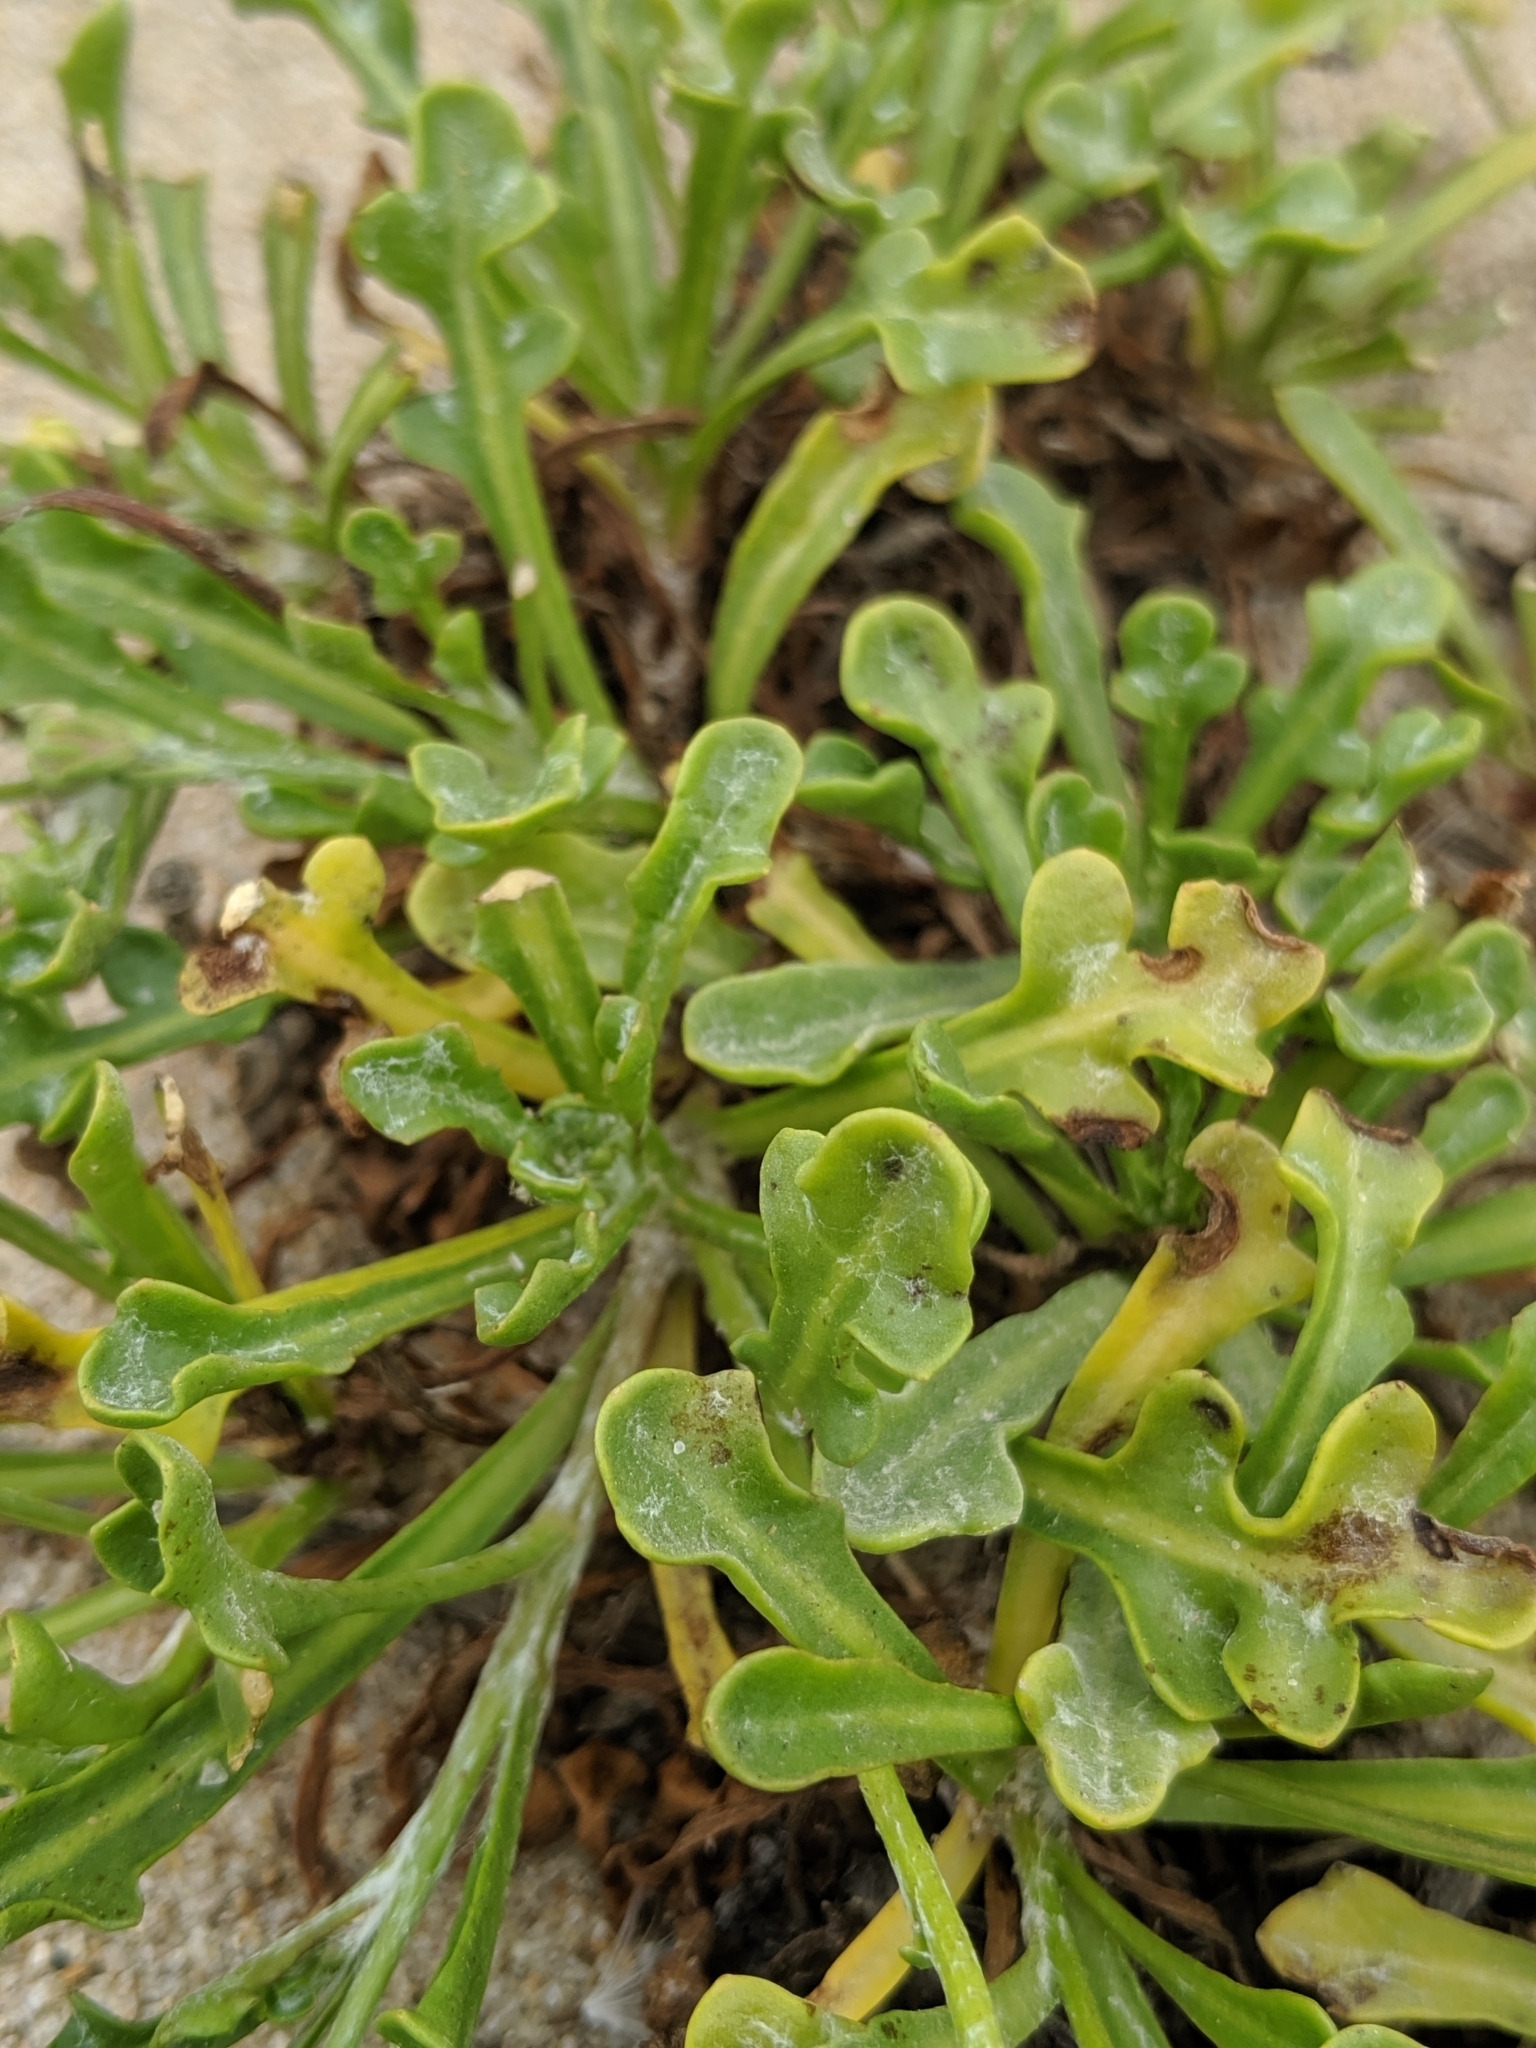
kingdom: Plantae
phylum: Tracheophyta
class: Magnoliopsida
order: Asterales
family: Asteraceae
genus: Malacothrix
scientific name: Malacothrix incana
